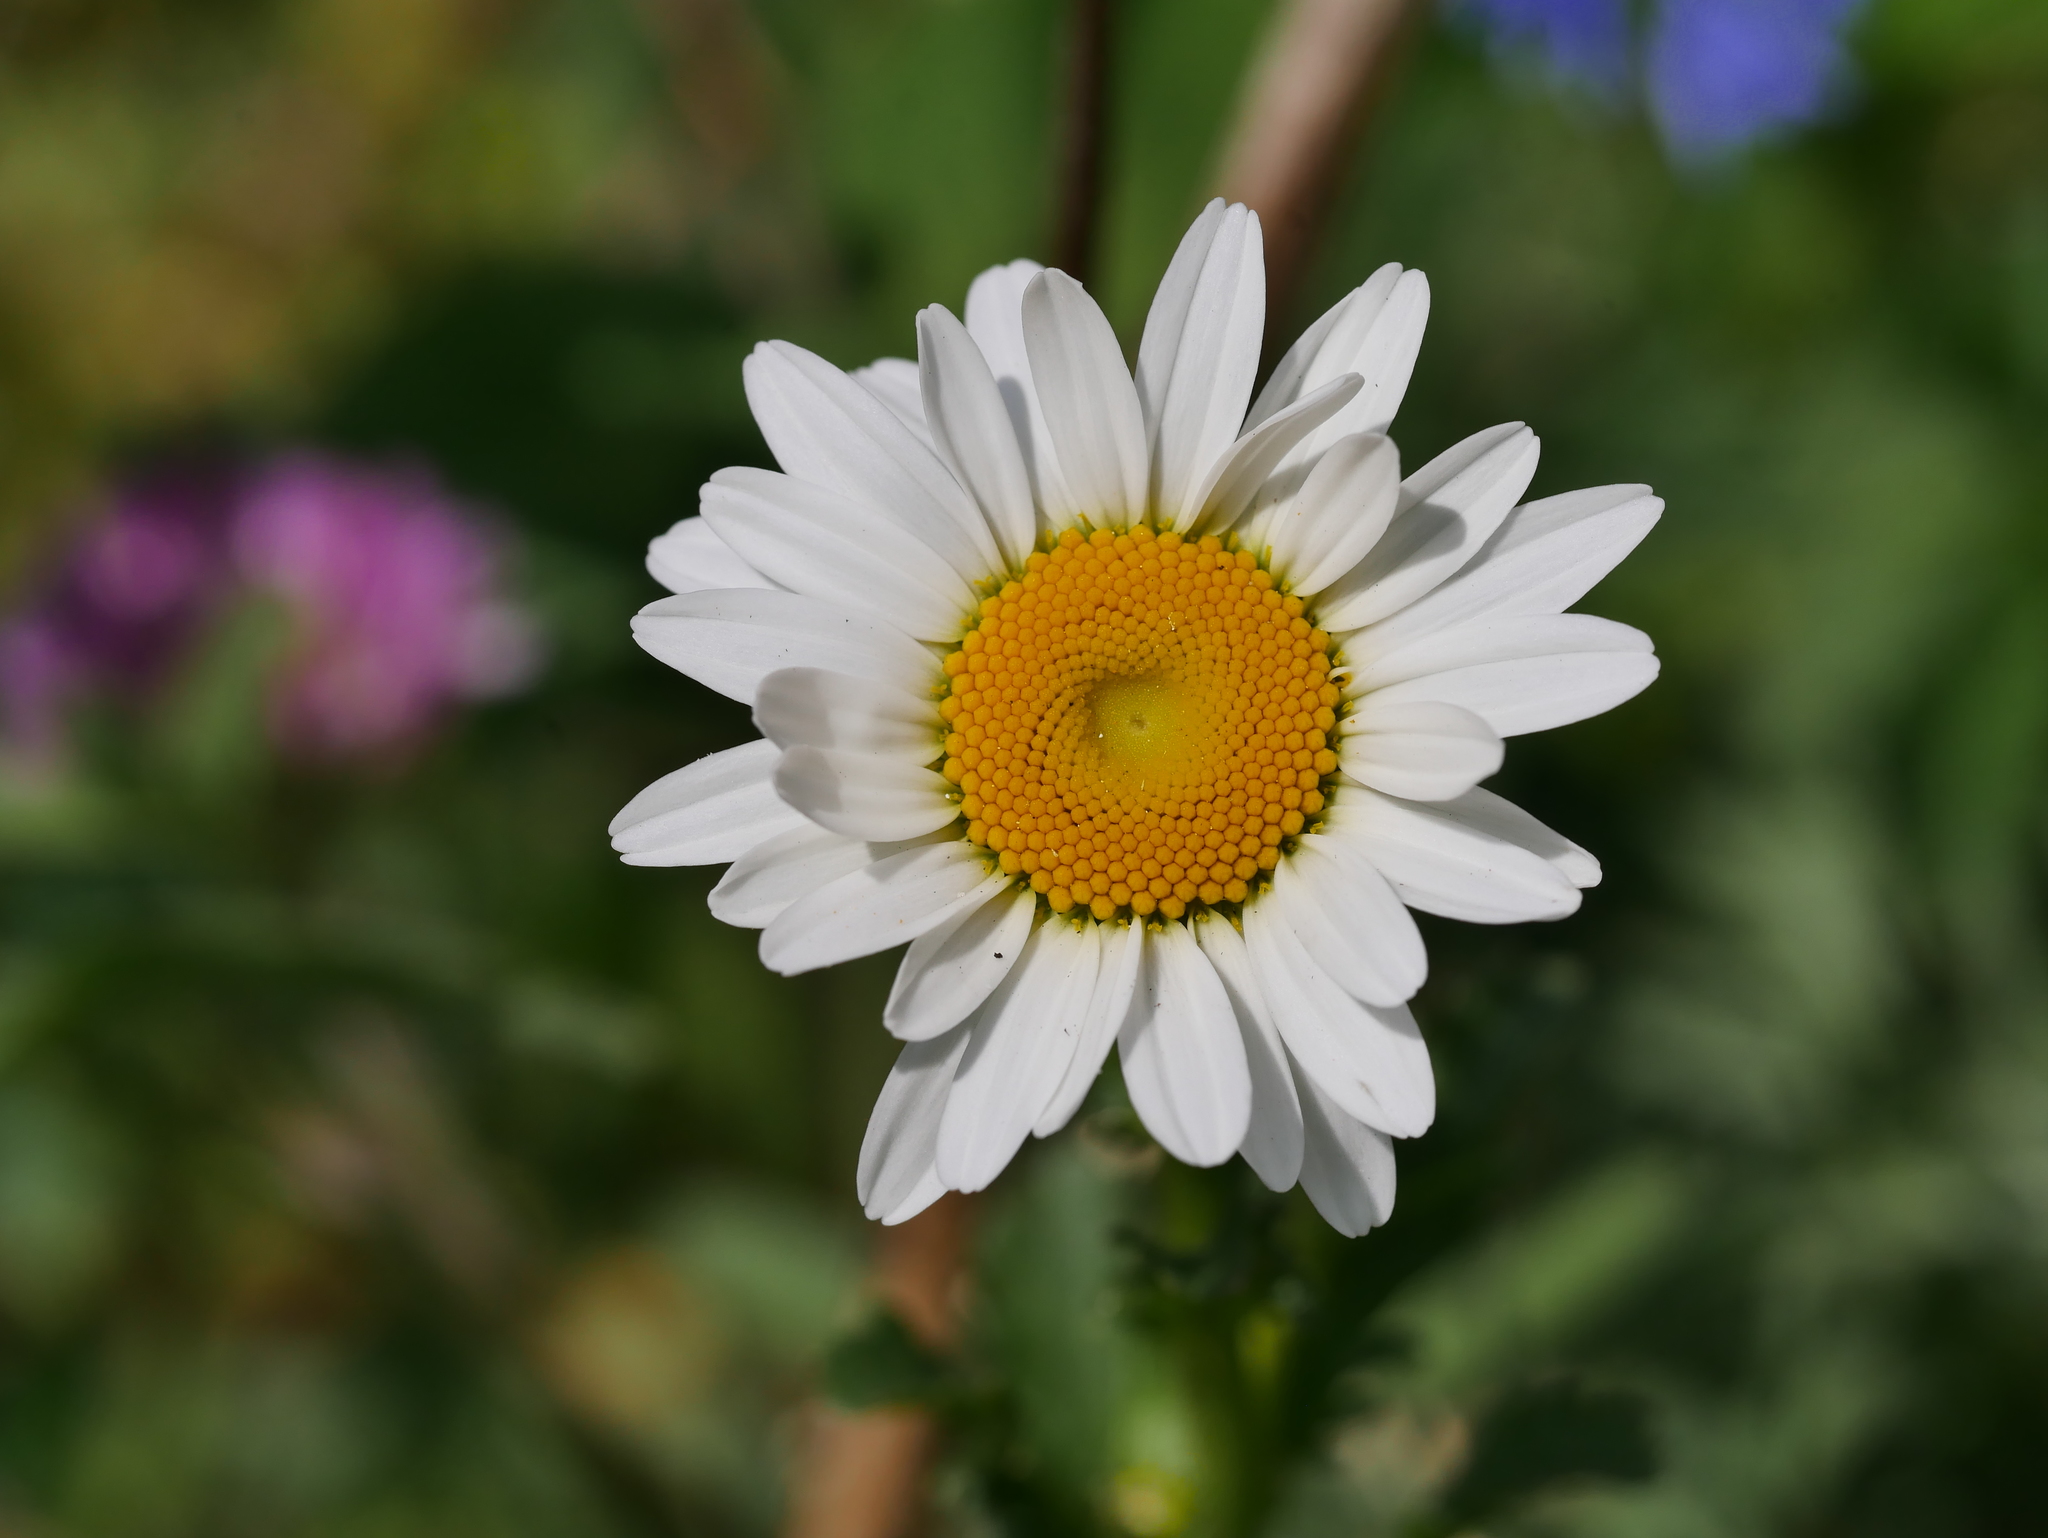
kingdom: Plantae
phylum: Tracheophyta
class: Magnoliopsida
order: Asterales
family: Asteraceae
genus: Leucanthemum
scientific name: Leucanthemum vulgare
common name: Oxeye daisy
